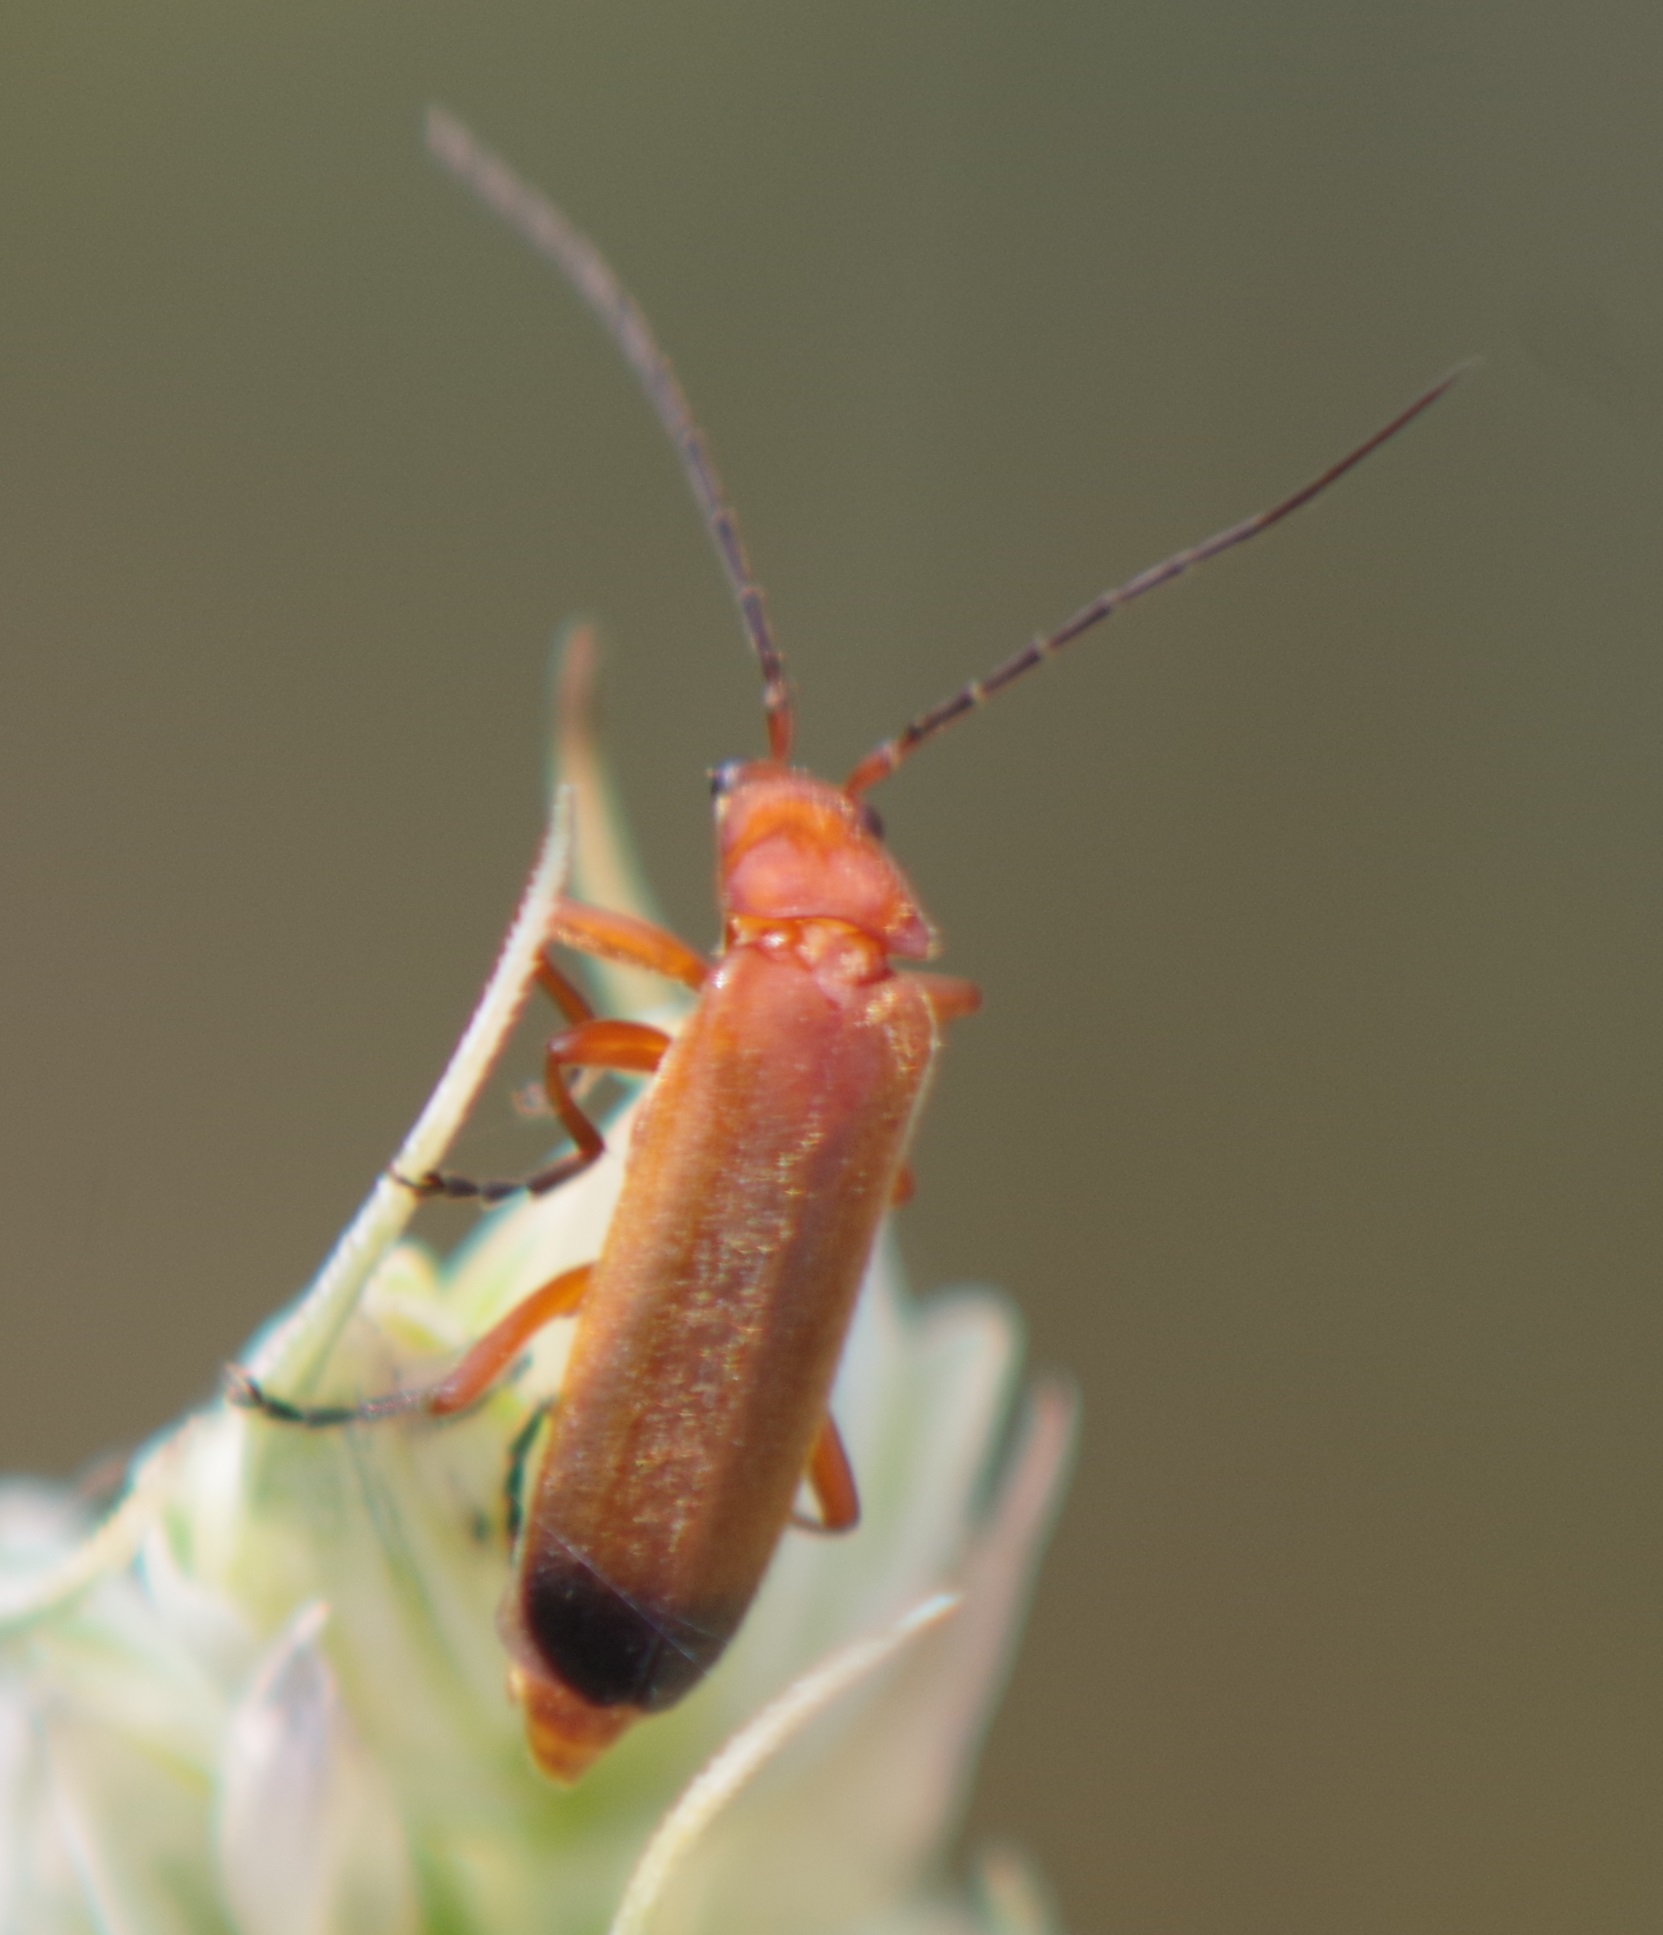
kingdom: Animalia
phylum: Arthropoda
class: Insecta
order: Coleoptera
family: Cantharidae
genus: Rhagonycha
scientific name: Rhagonycha fulva
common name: Common red soldier beetle
